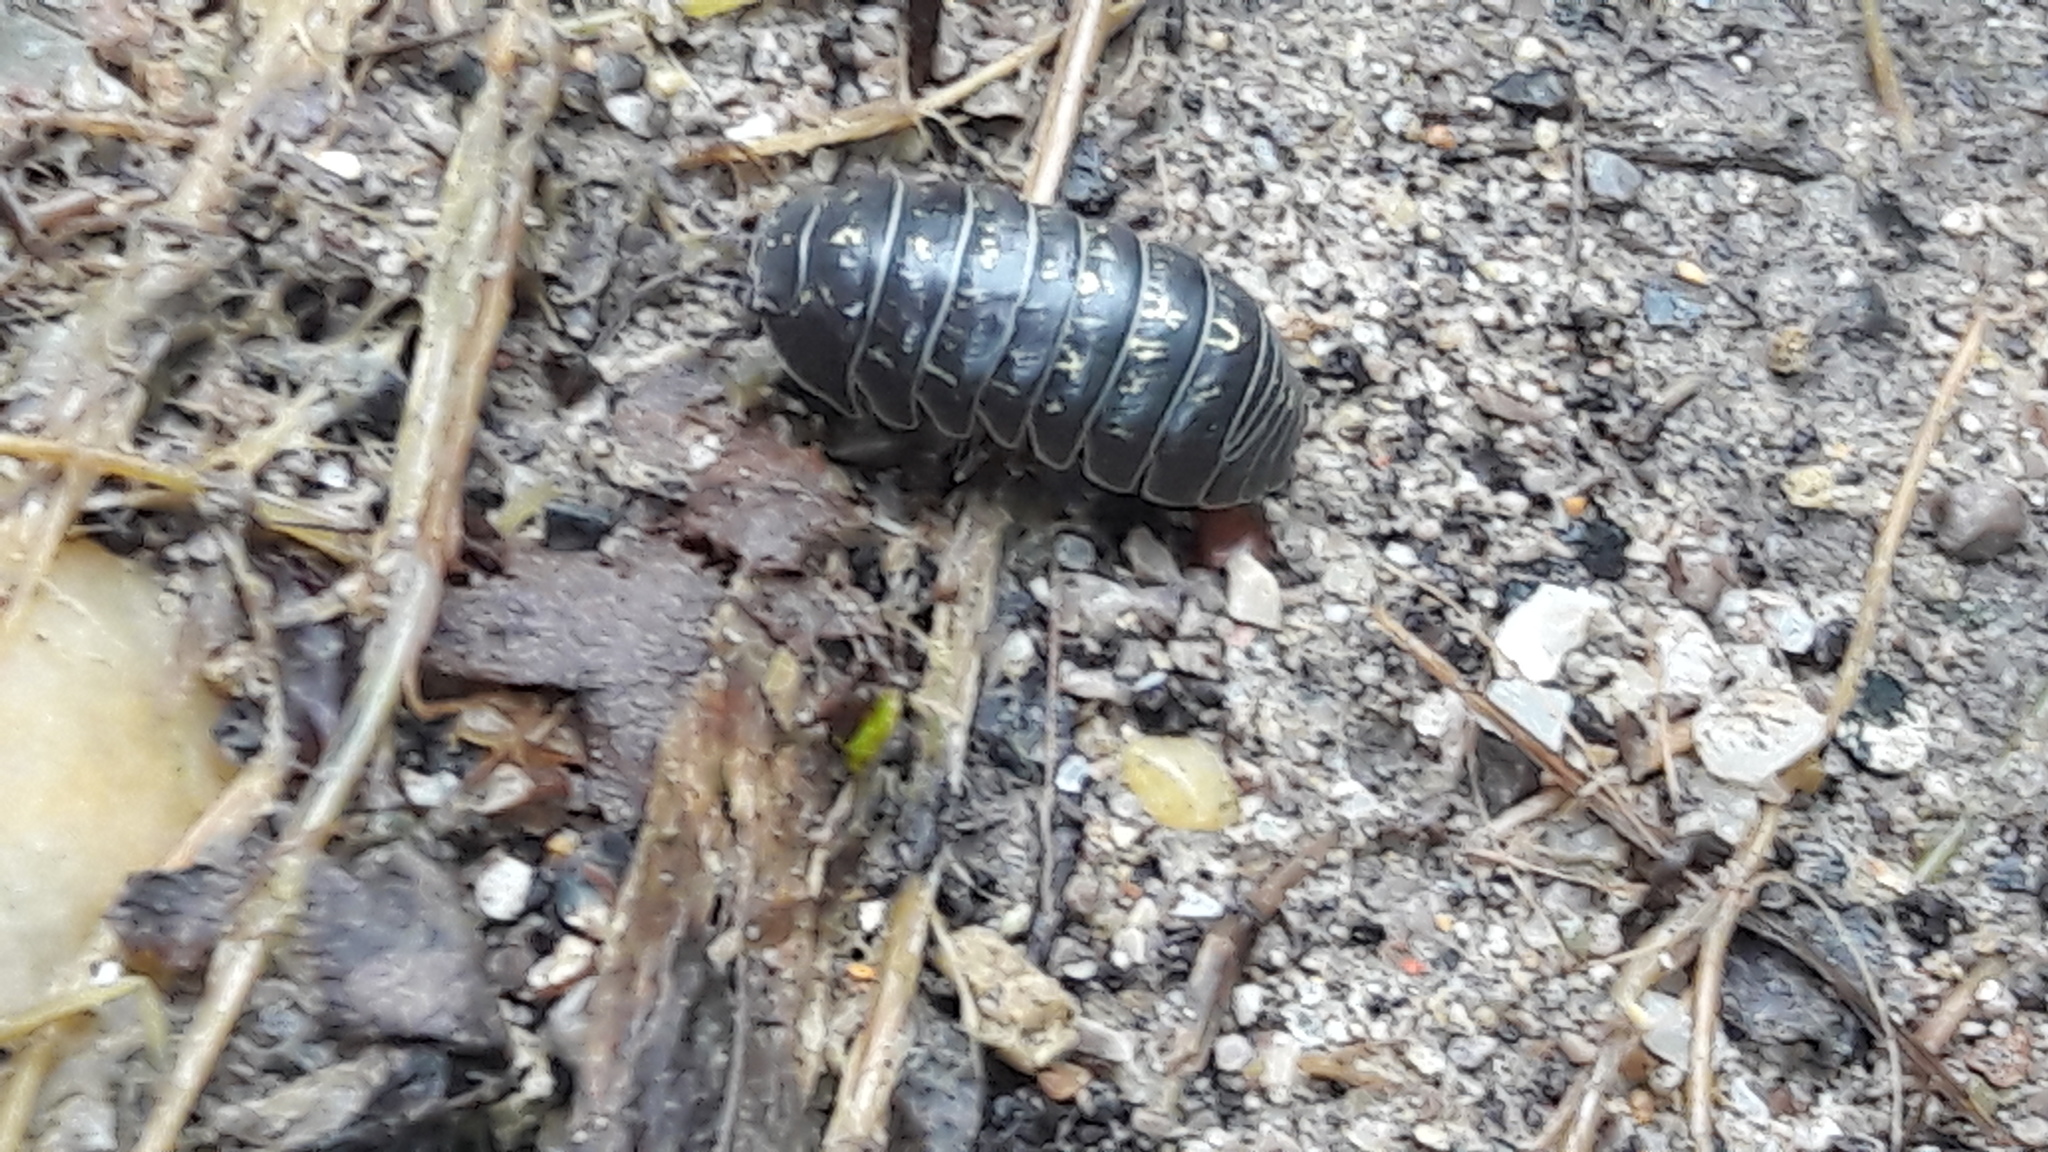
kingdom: Animalia
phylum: Arthropoda
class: Malacostraca
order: Isopoda
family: Armadillidiidae
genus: Armadillidium
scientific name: Armadillidium vulgare
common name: Common pill woodlouse
